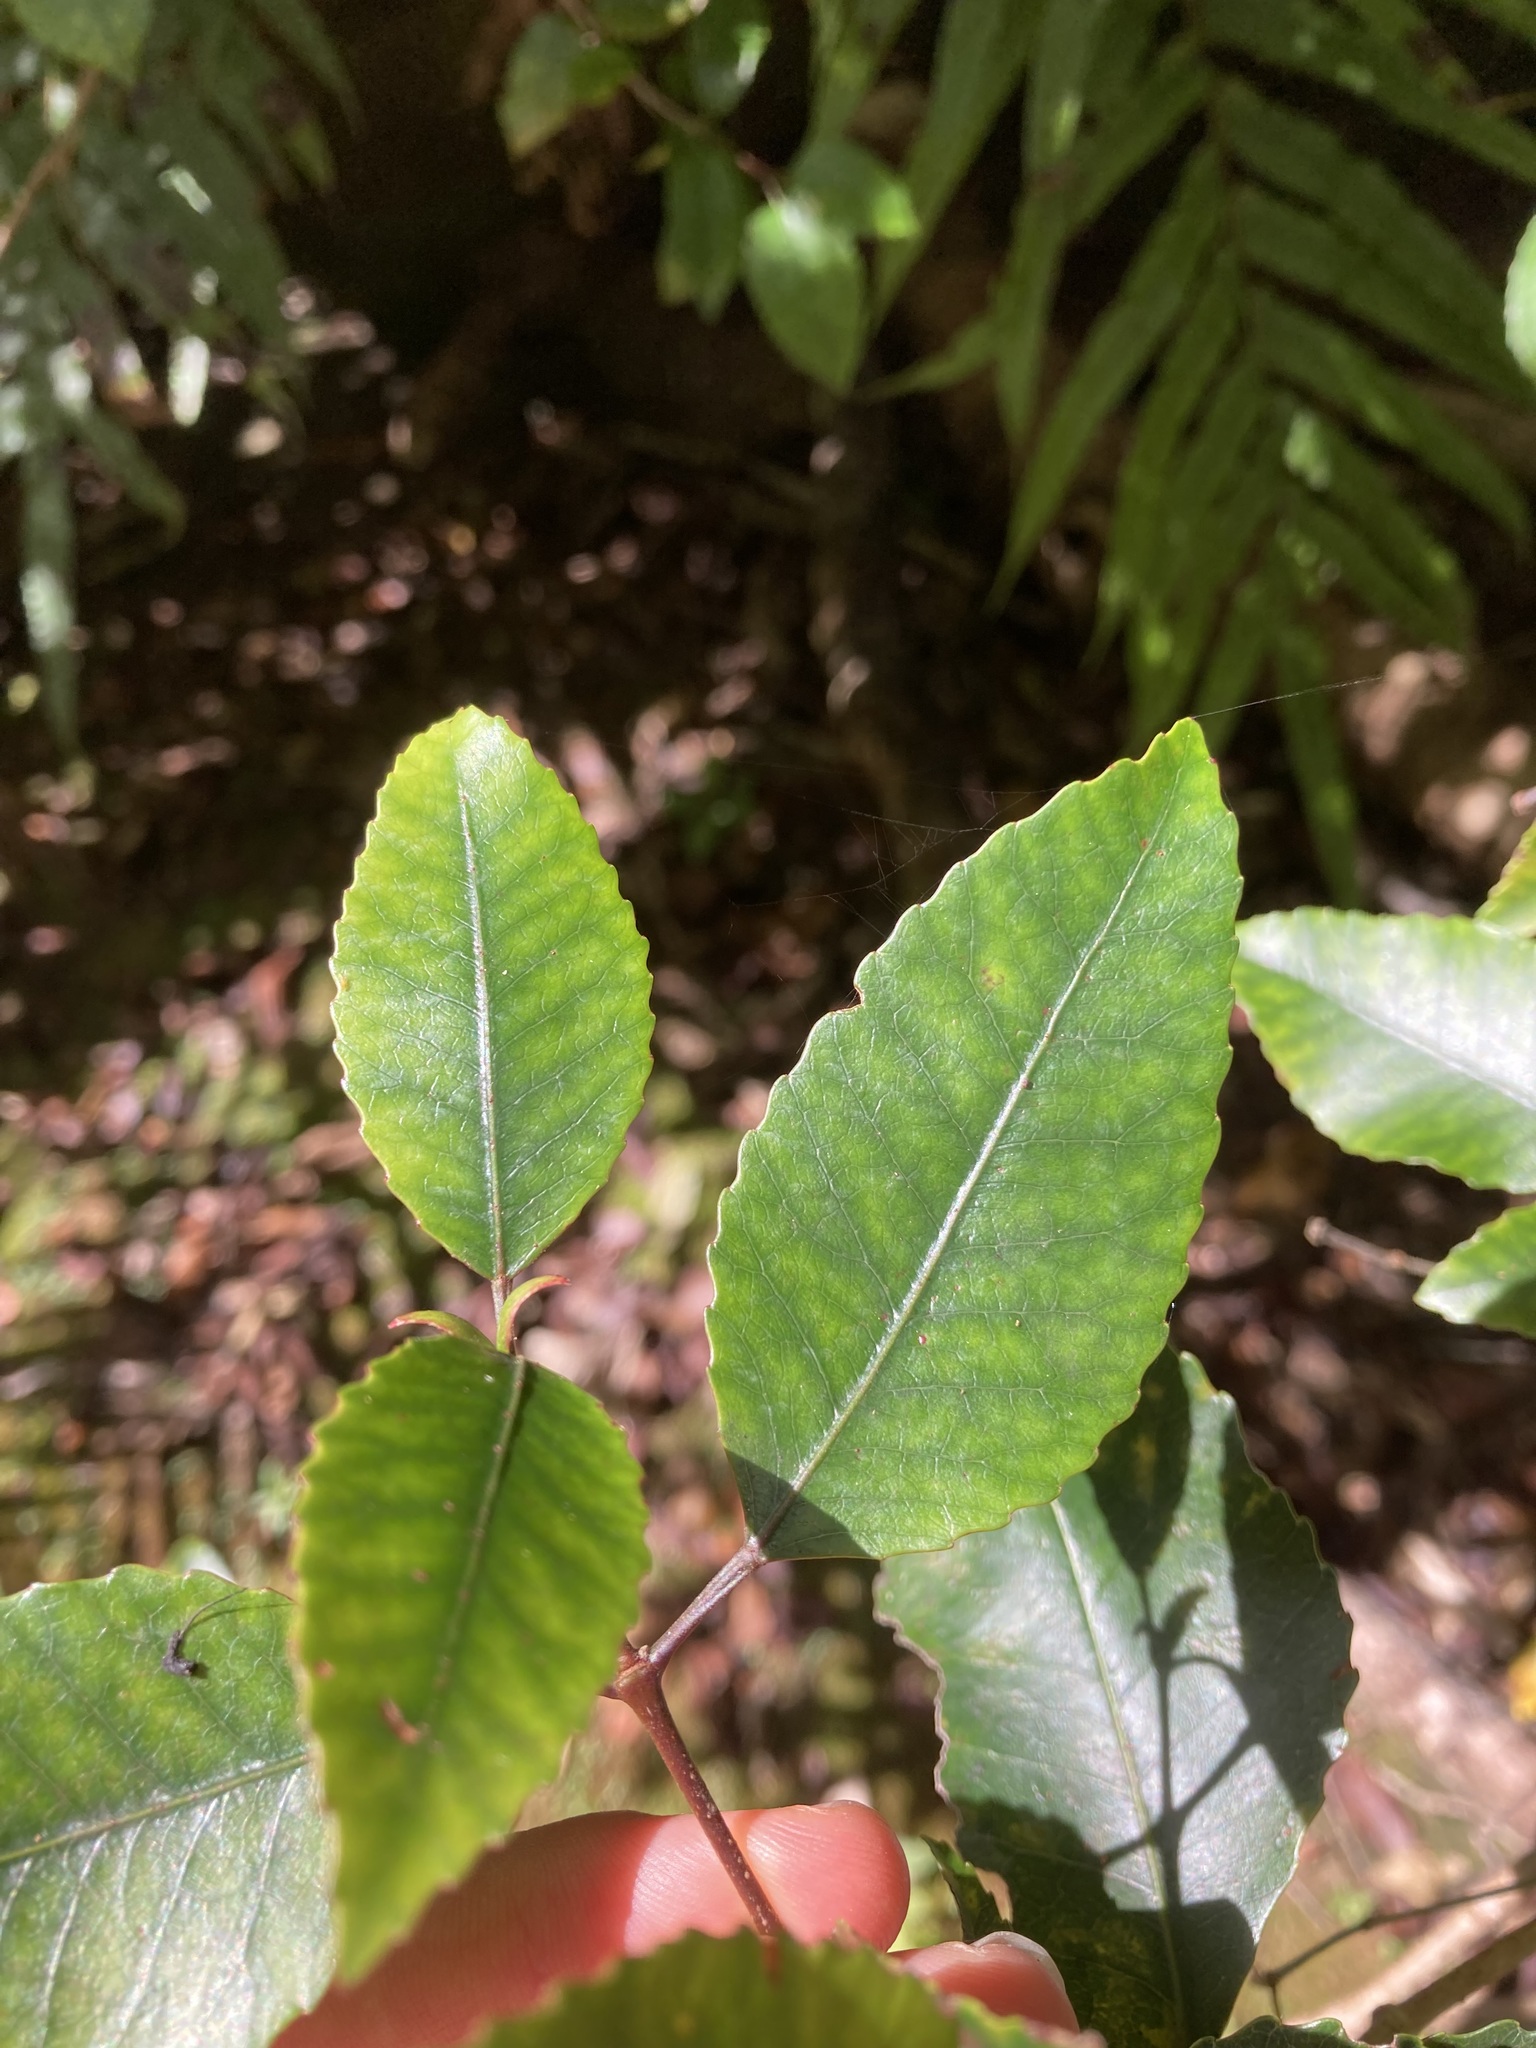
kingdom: Plantae
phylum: Tracheophyta
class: Magnoliopsida
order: Oxalidales
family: Cunoniaceae
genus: Pterophylla
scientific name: Pterophylla racemosa
